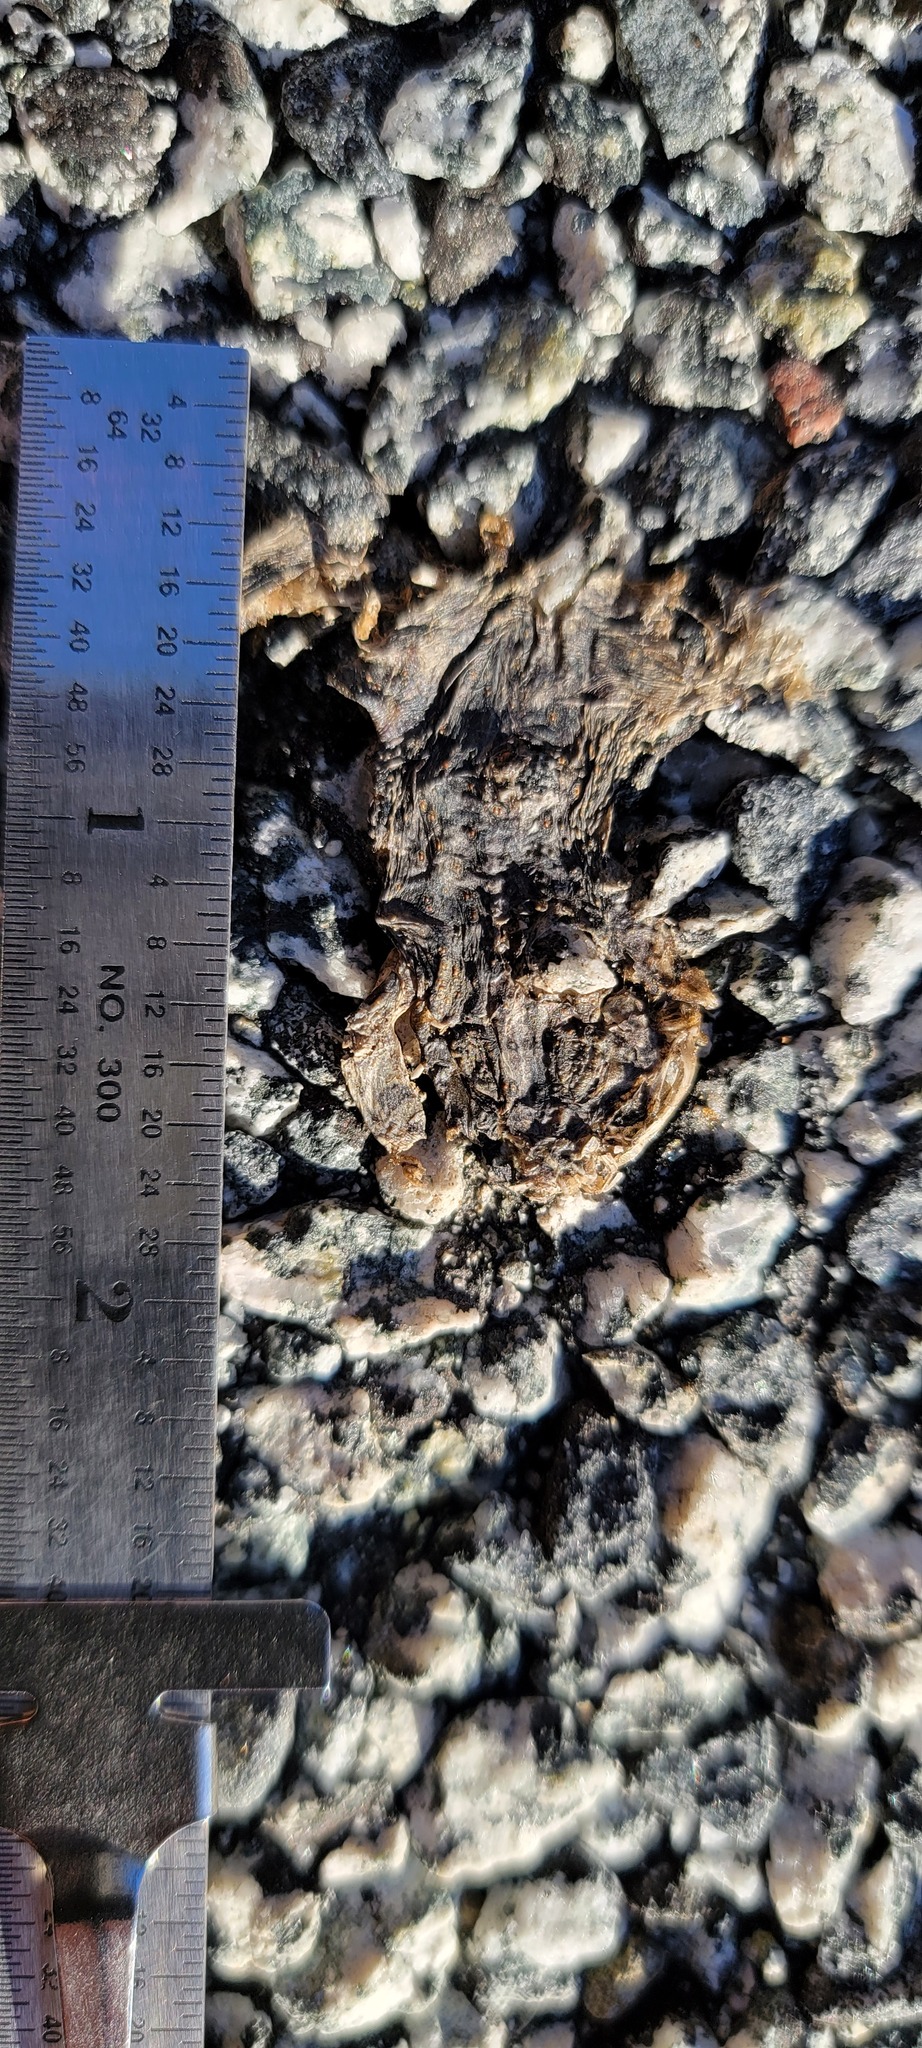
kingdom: Animalia
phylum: Chordata
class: Amphibia
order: Caudata
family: Salamandridae
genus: Taricha
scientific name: Taricha
